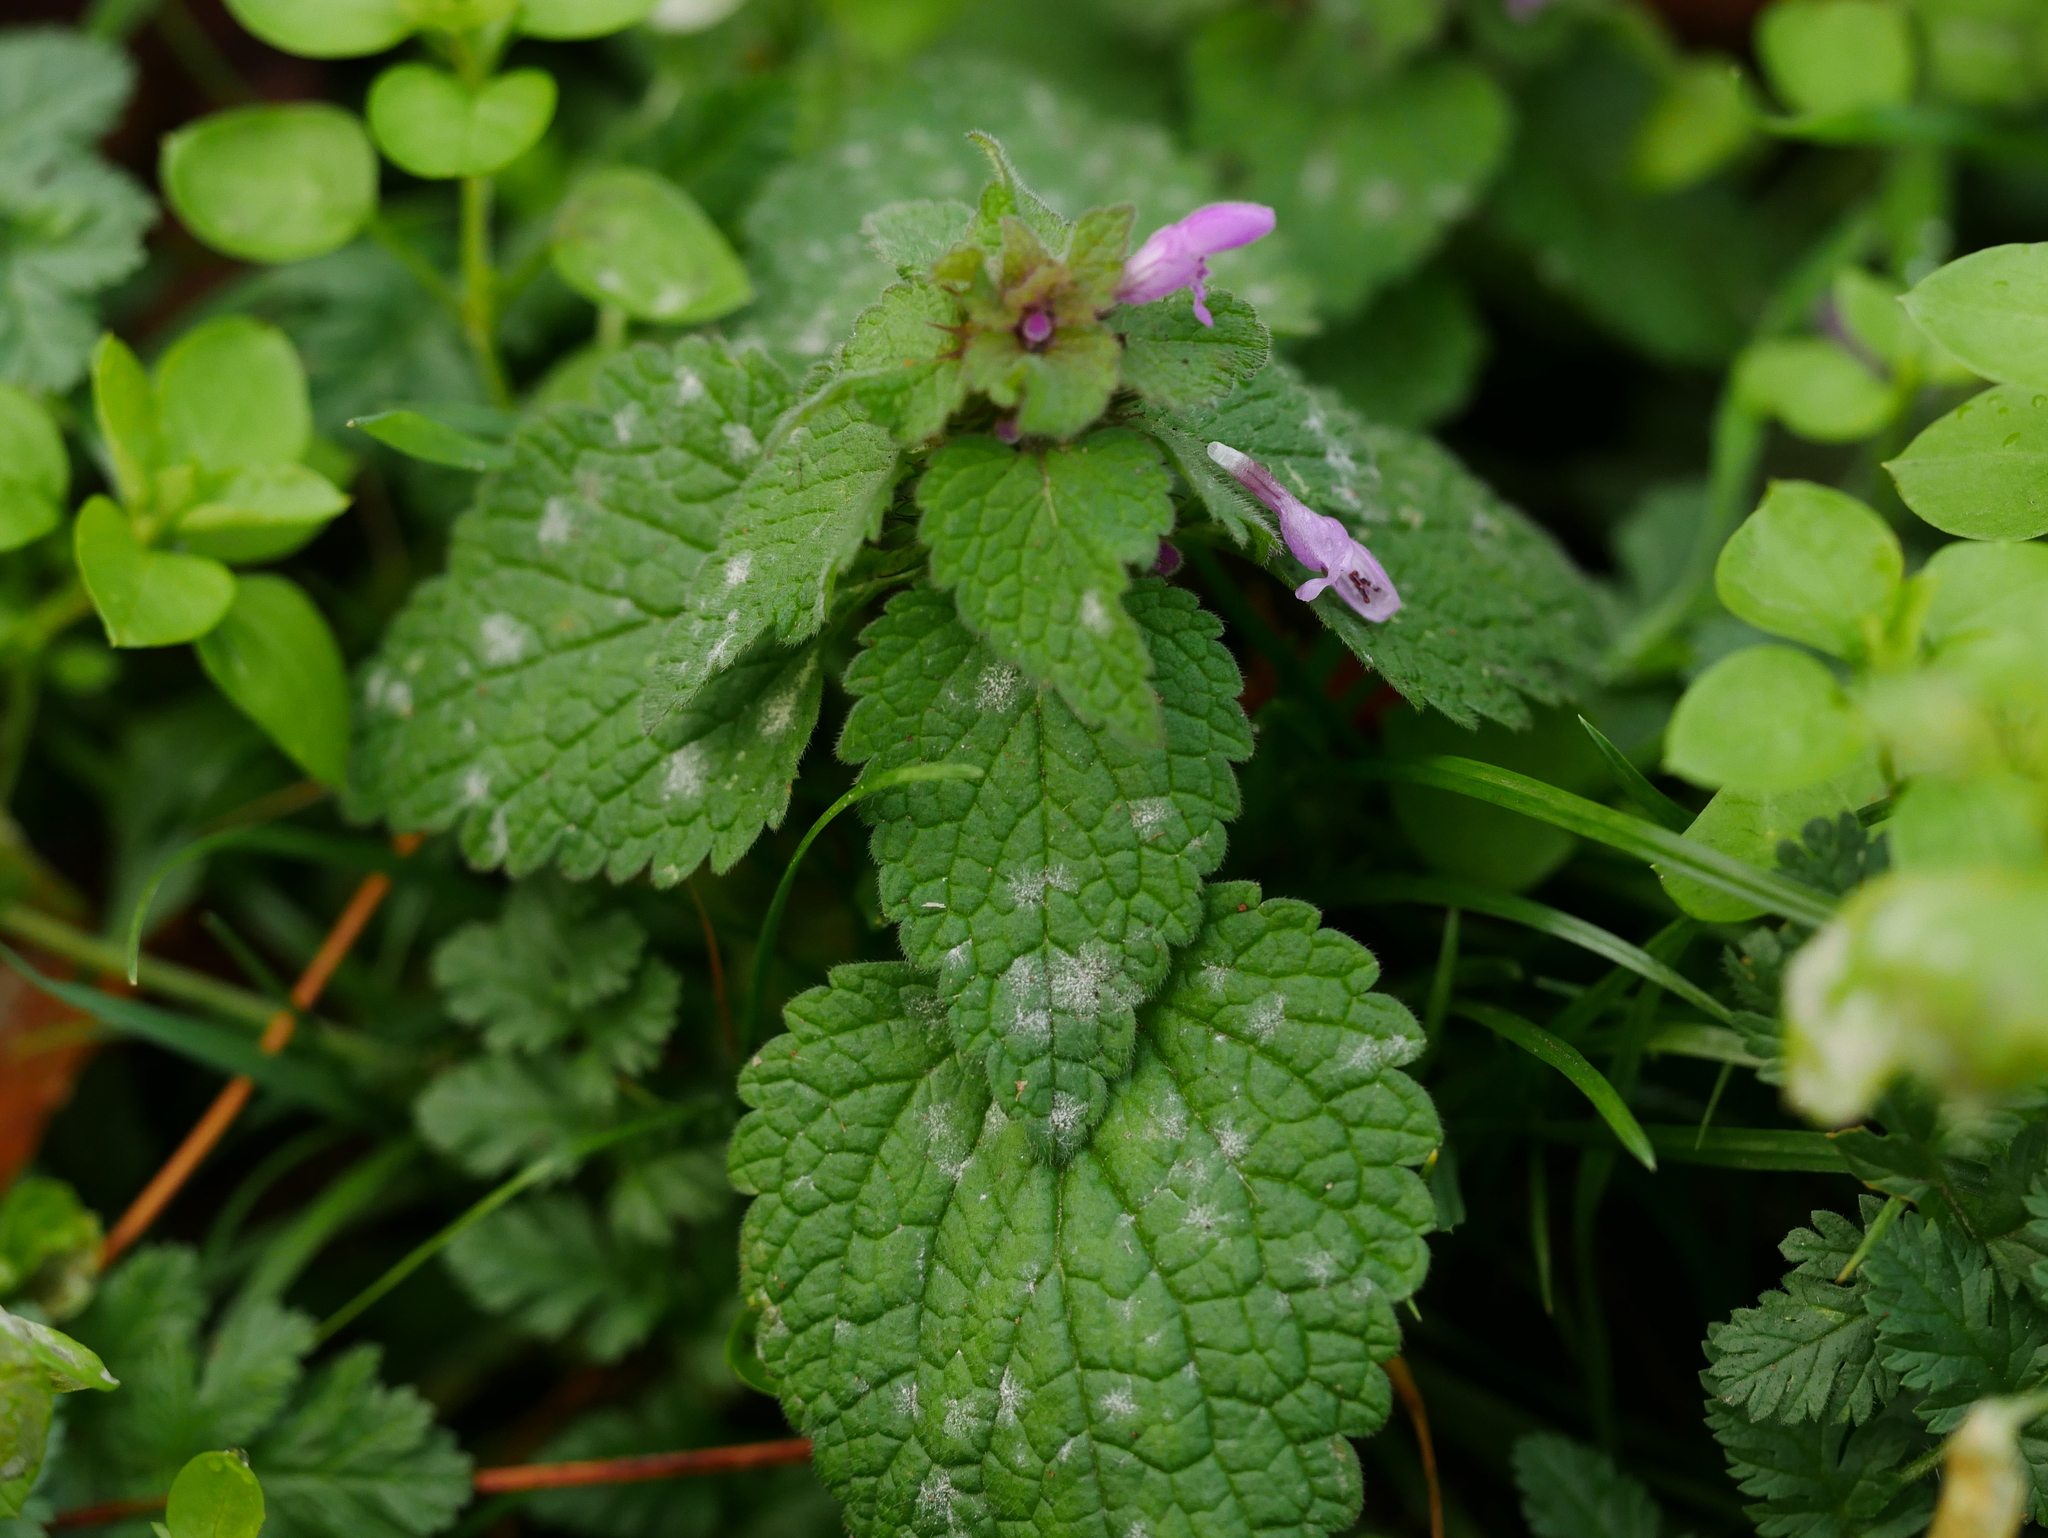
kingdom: Plantae
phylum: Tracheophyta
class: Magnoliopsida
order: Lamiales
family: Lamiaceae
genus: Lamium
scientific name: Lamium purpureum
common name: Red dead-nettle
